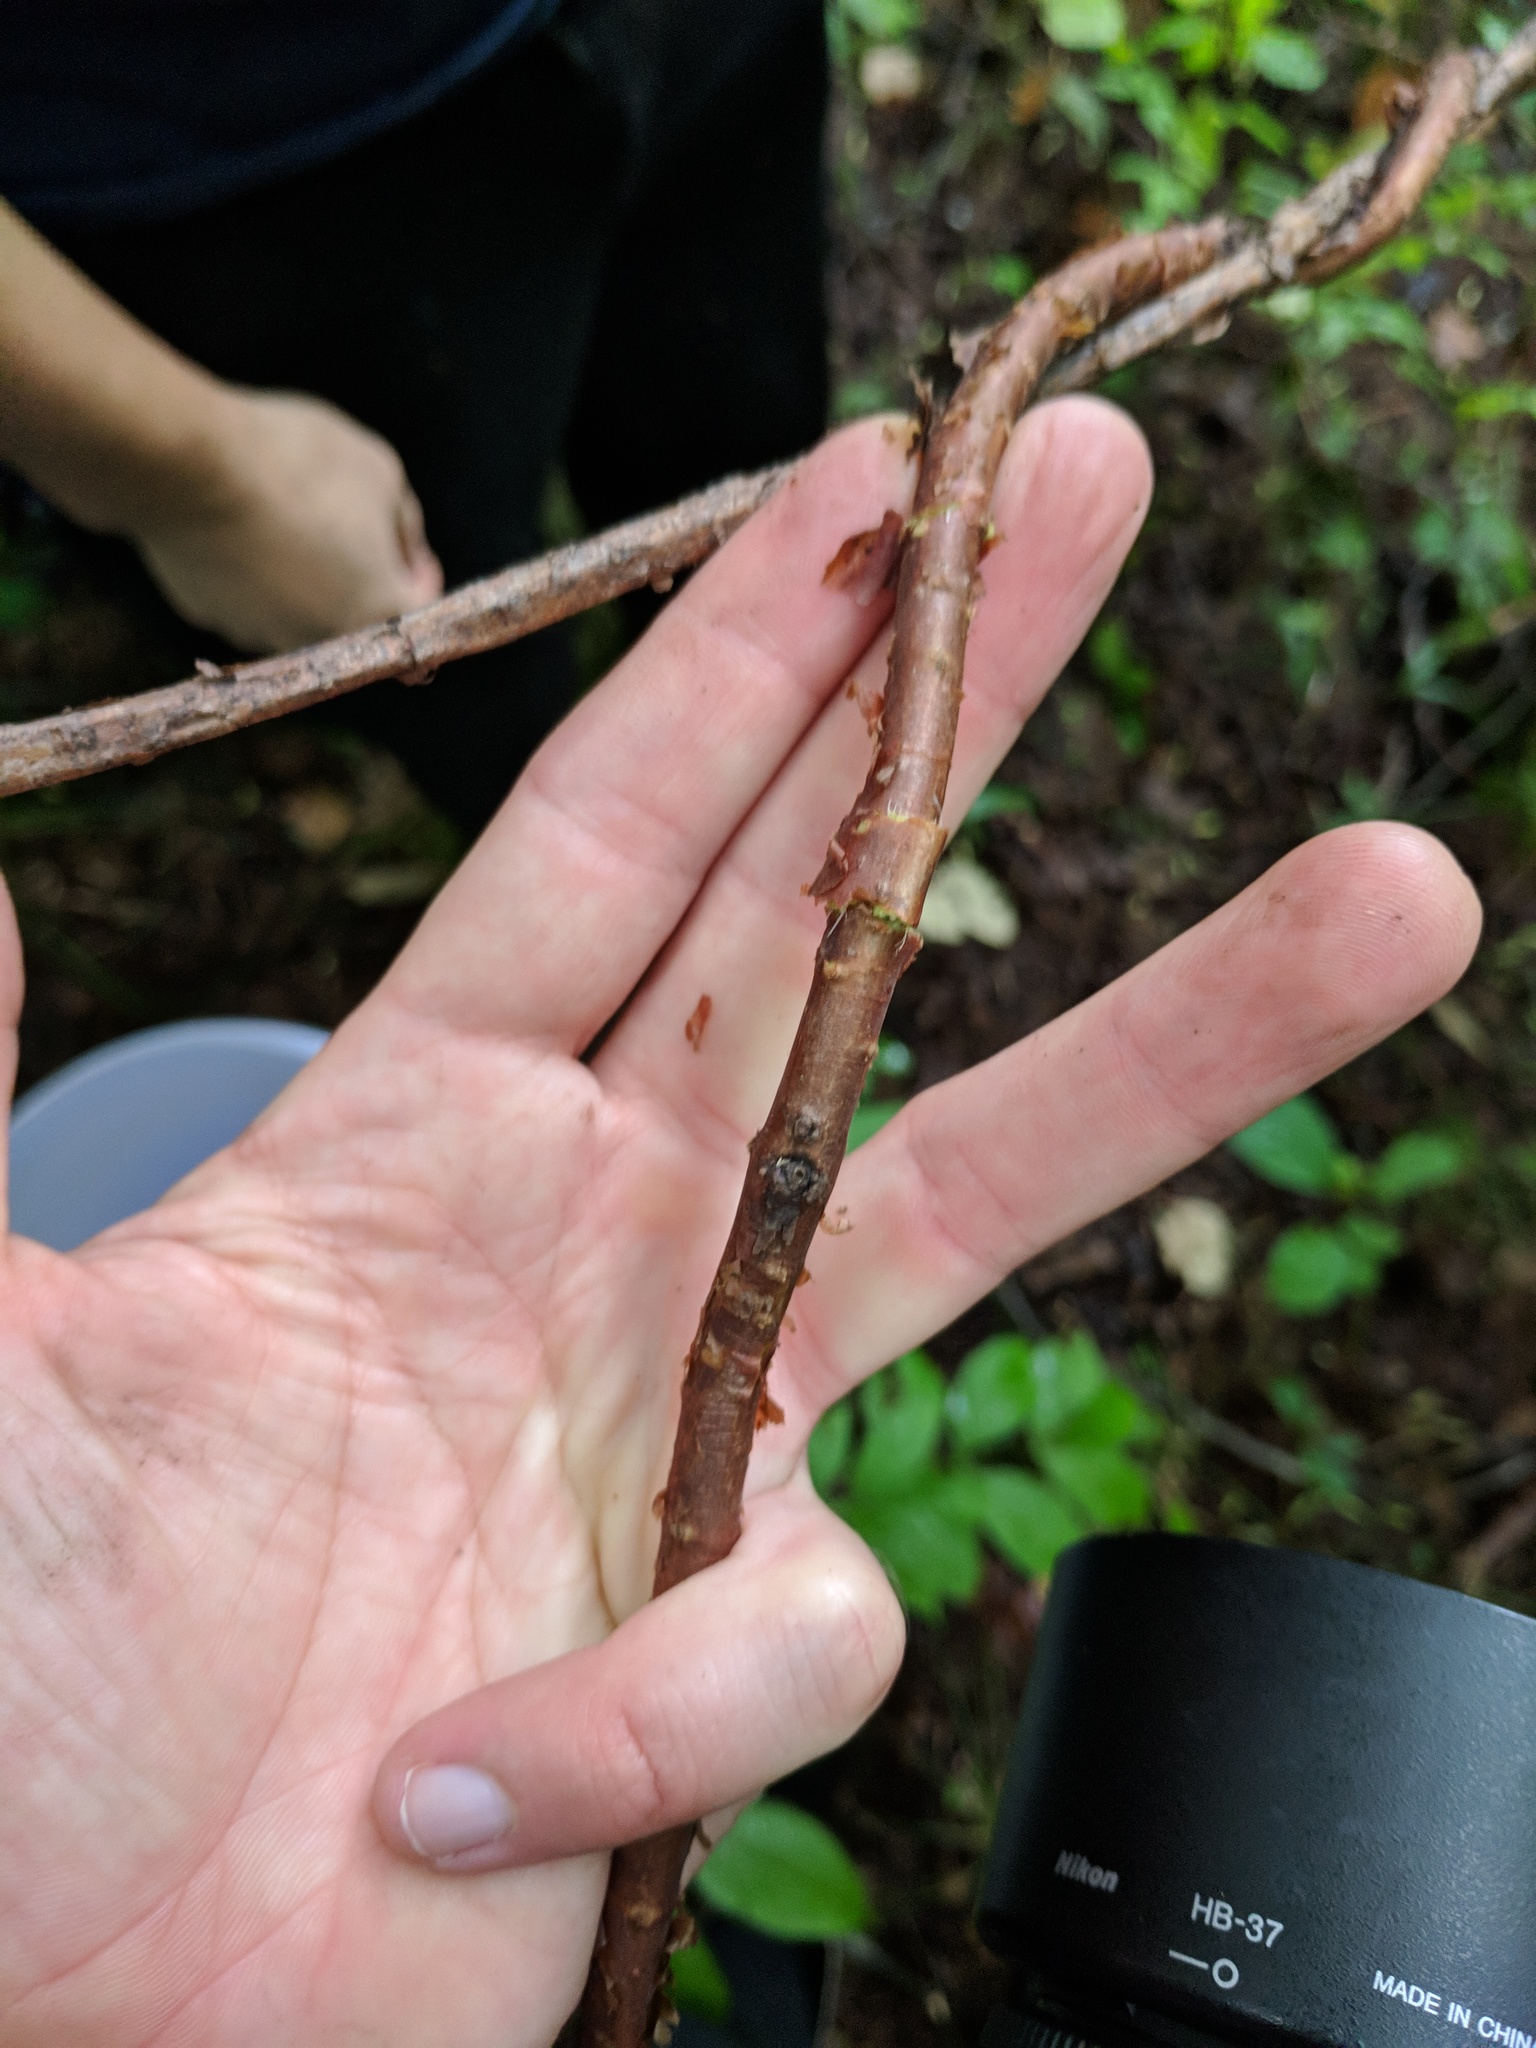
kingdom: Plantae
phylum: Tracheophyta
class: Magnoliopsida
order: Austrobaileyales
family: Schisandraceae
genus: Schisandra
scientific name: Schisandra chinensis
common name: Magnolia-vine
